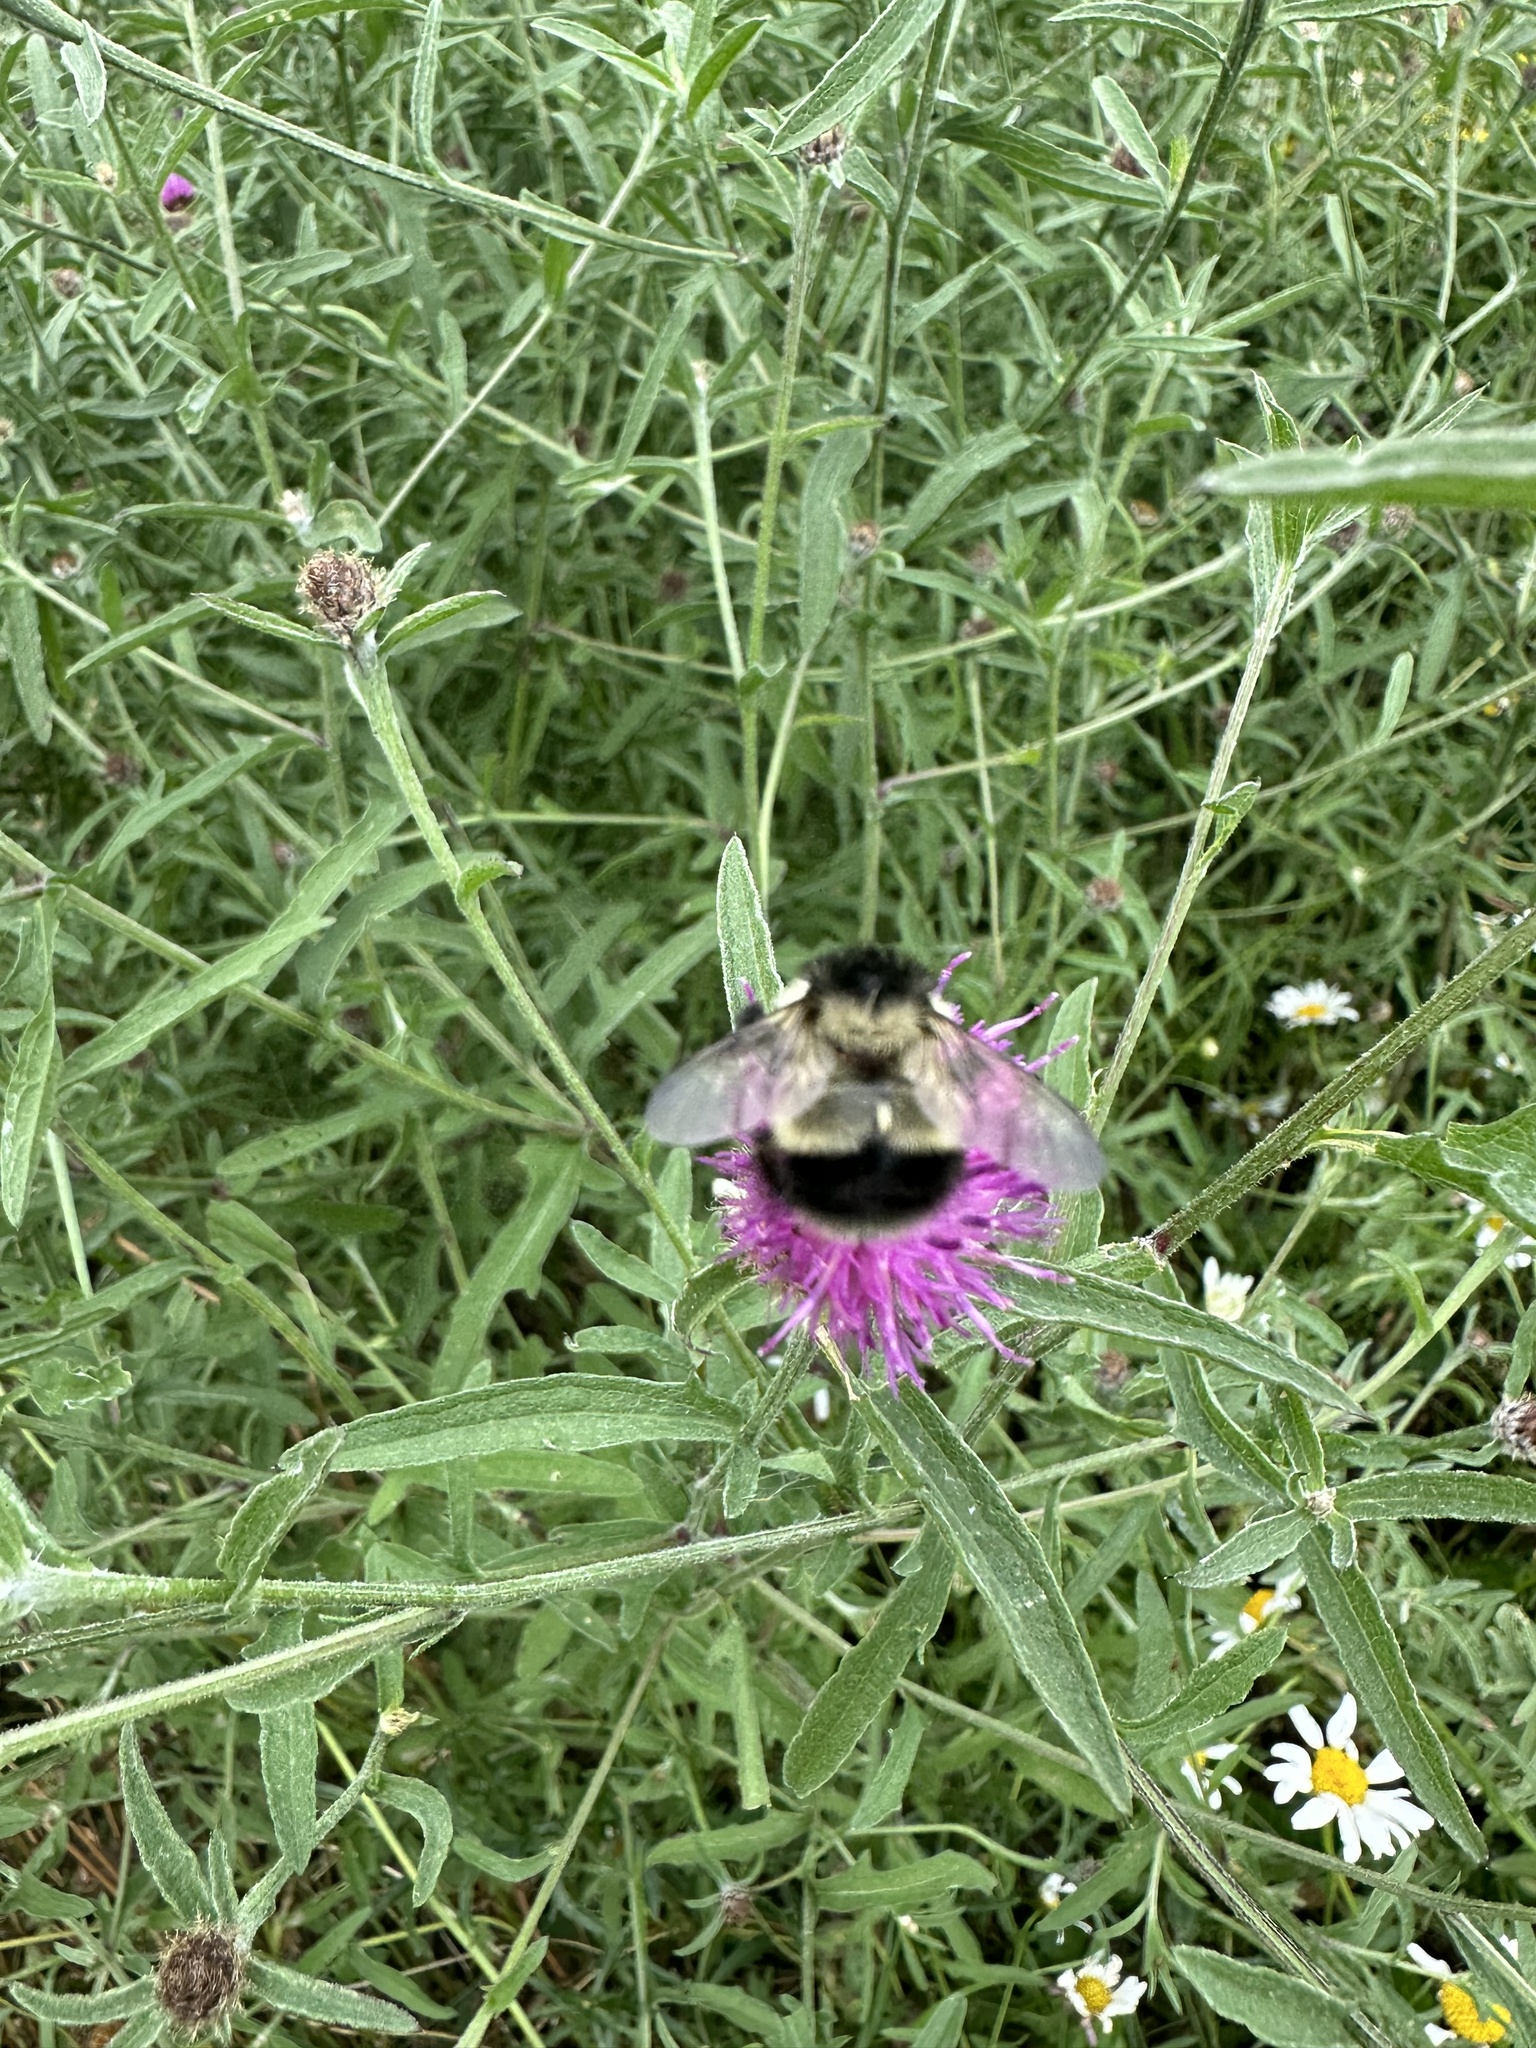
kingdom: Animalia
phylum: Arthropoda
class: Insecta
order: Hymenoptera
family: Apidae
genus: Bombus
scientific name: Bombus vagans
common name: Half-black bumble bee
